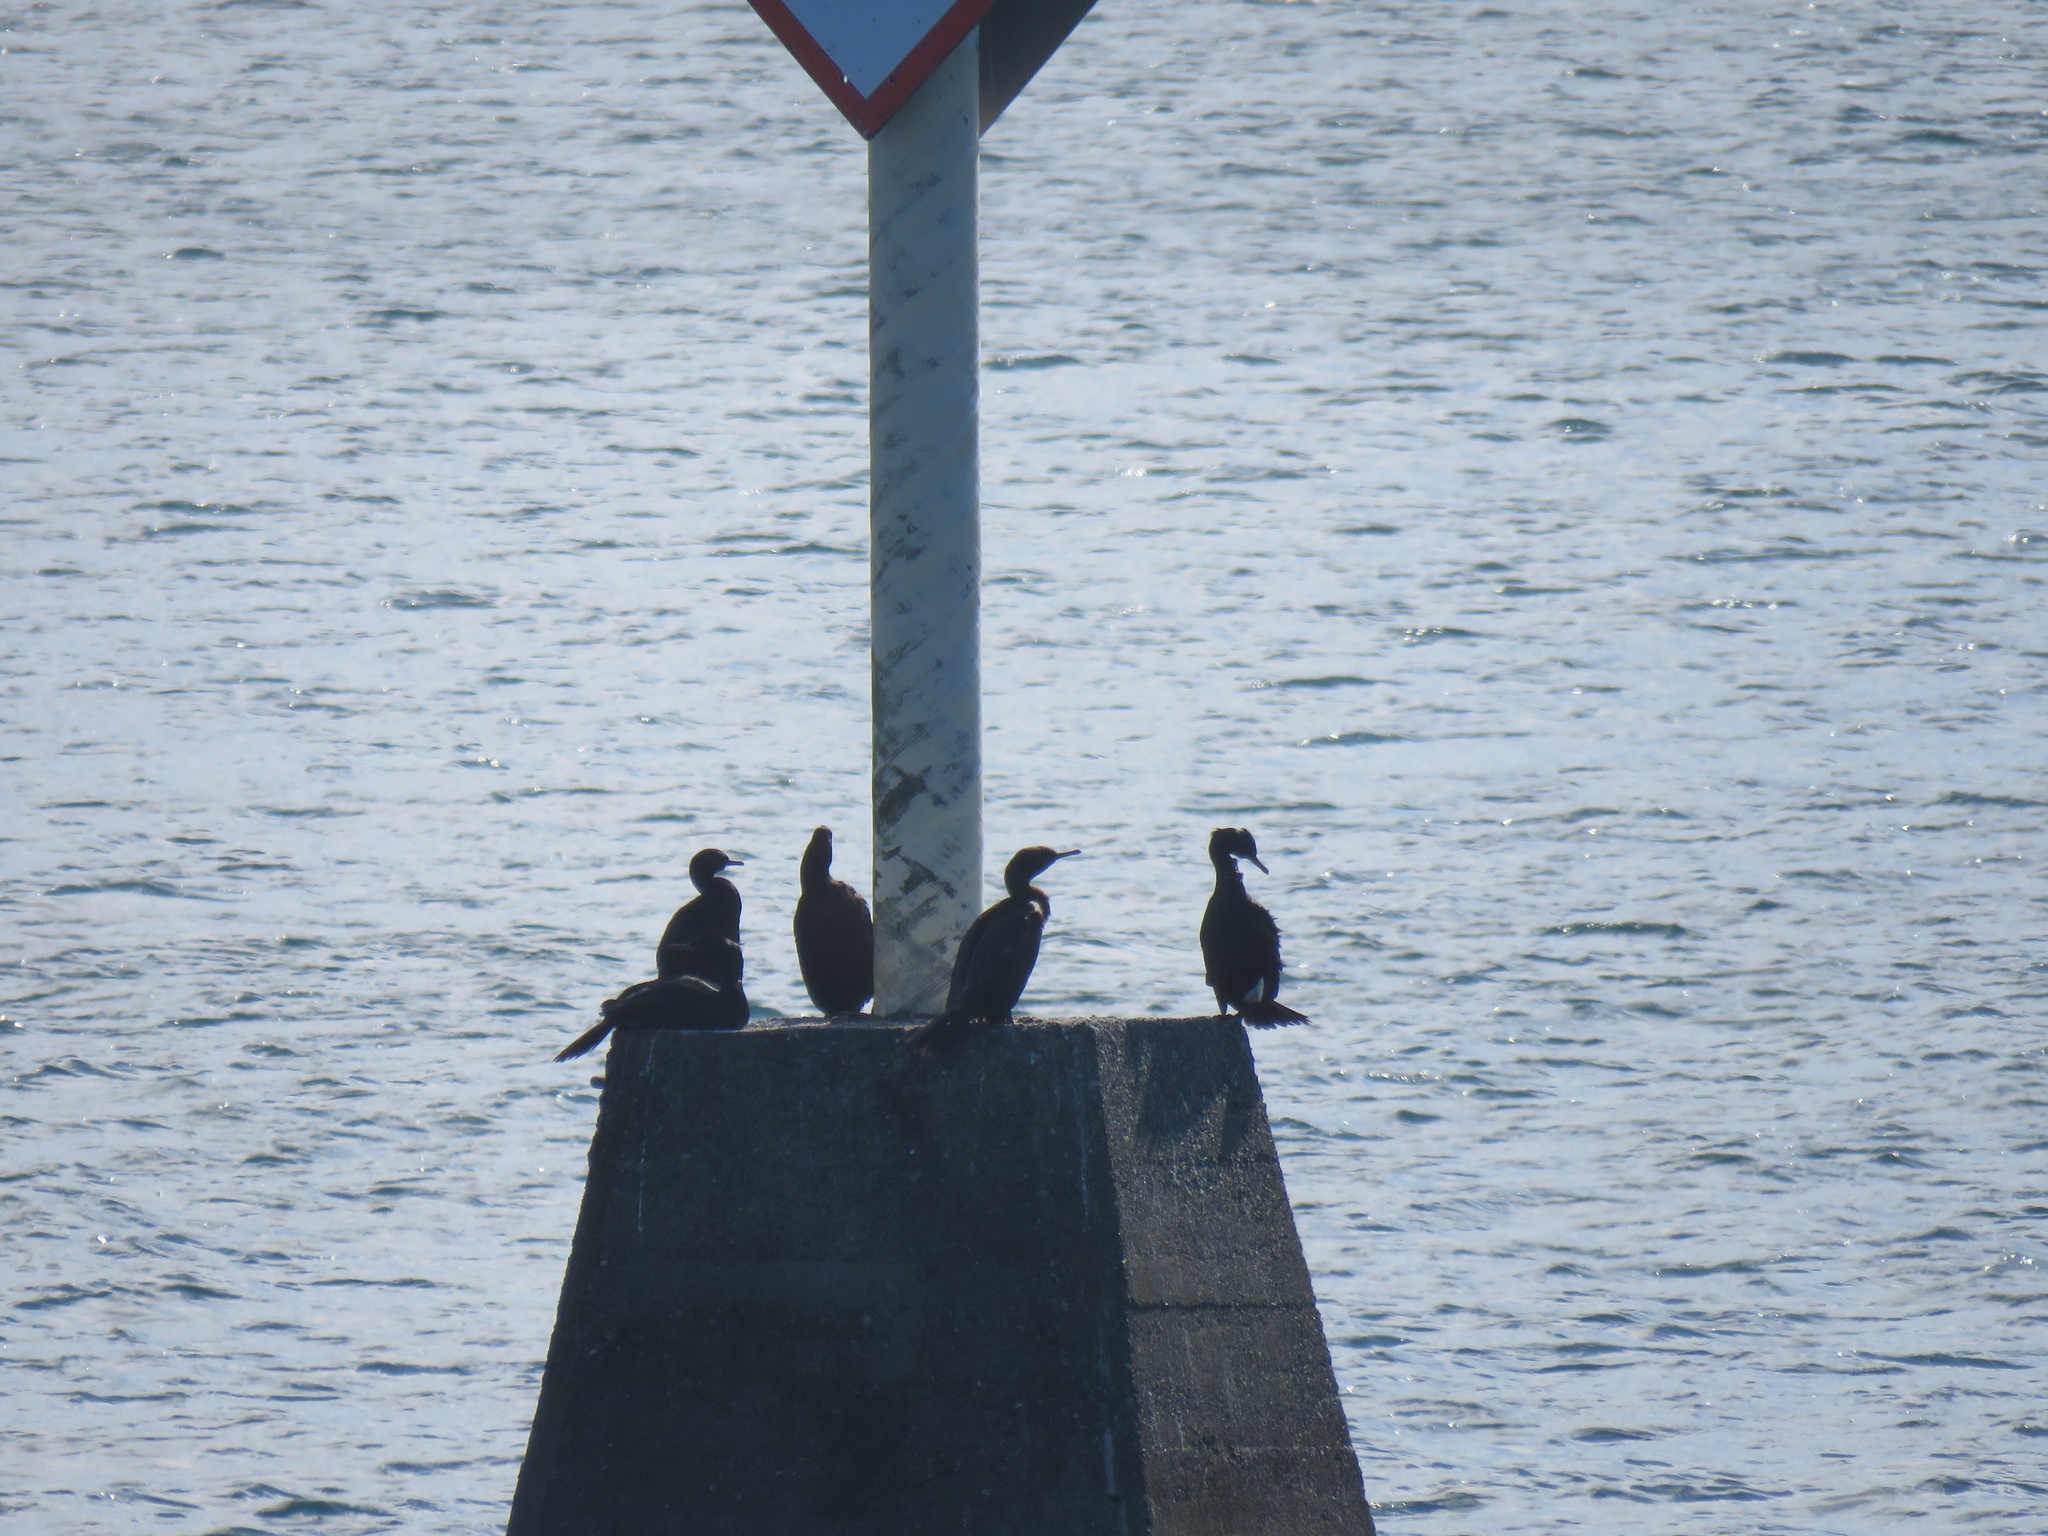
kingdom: Animalia
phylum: Chordata
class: Aves
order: Suliformes
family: Phalacrocoracidae
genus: Phalacrocorax
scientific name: Phalacrocorax pelagicus
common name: Pelagic cormorant
